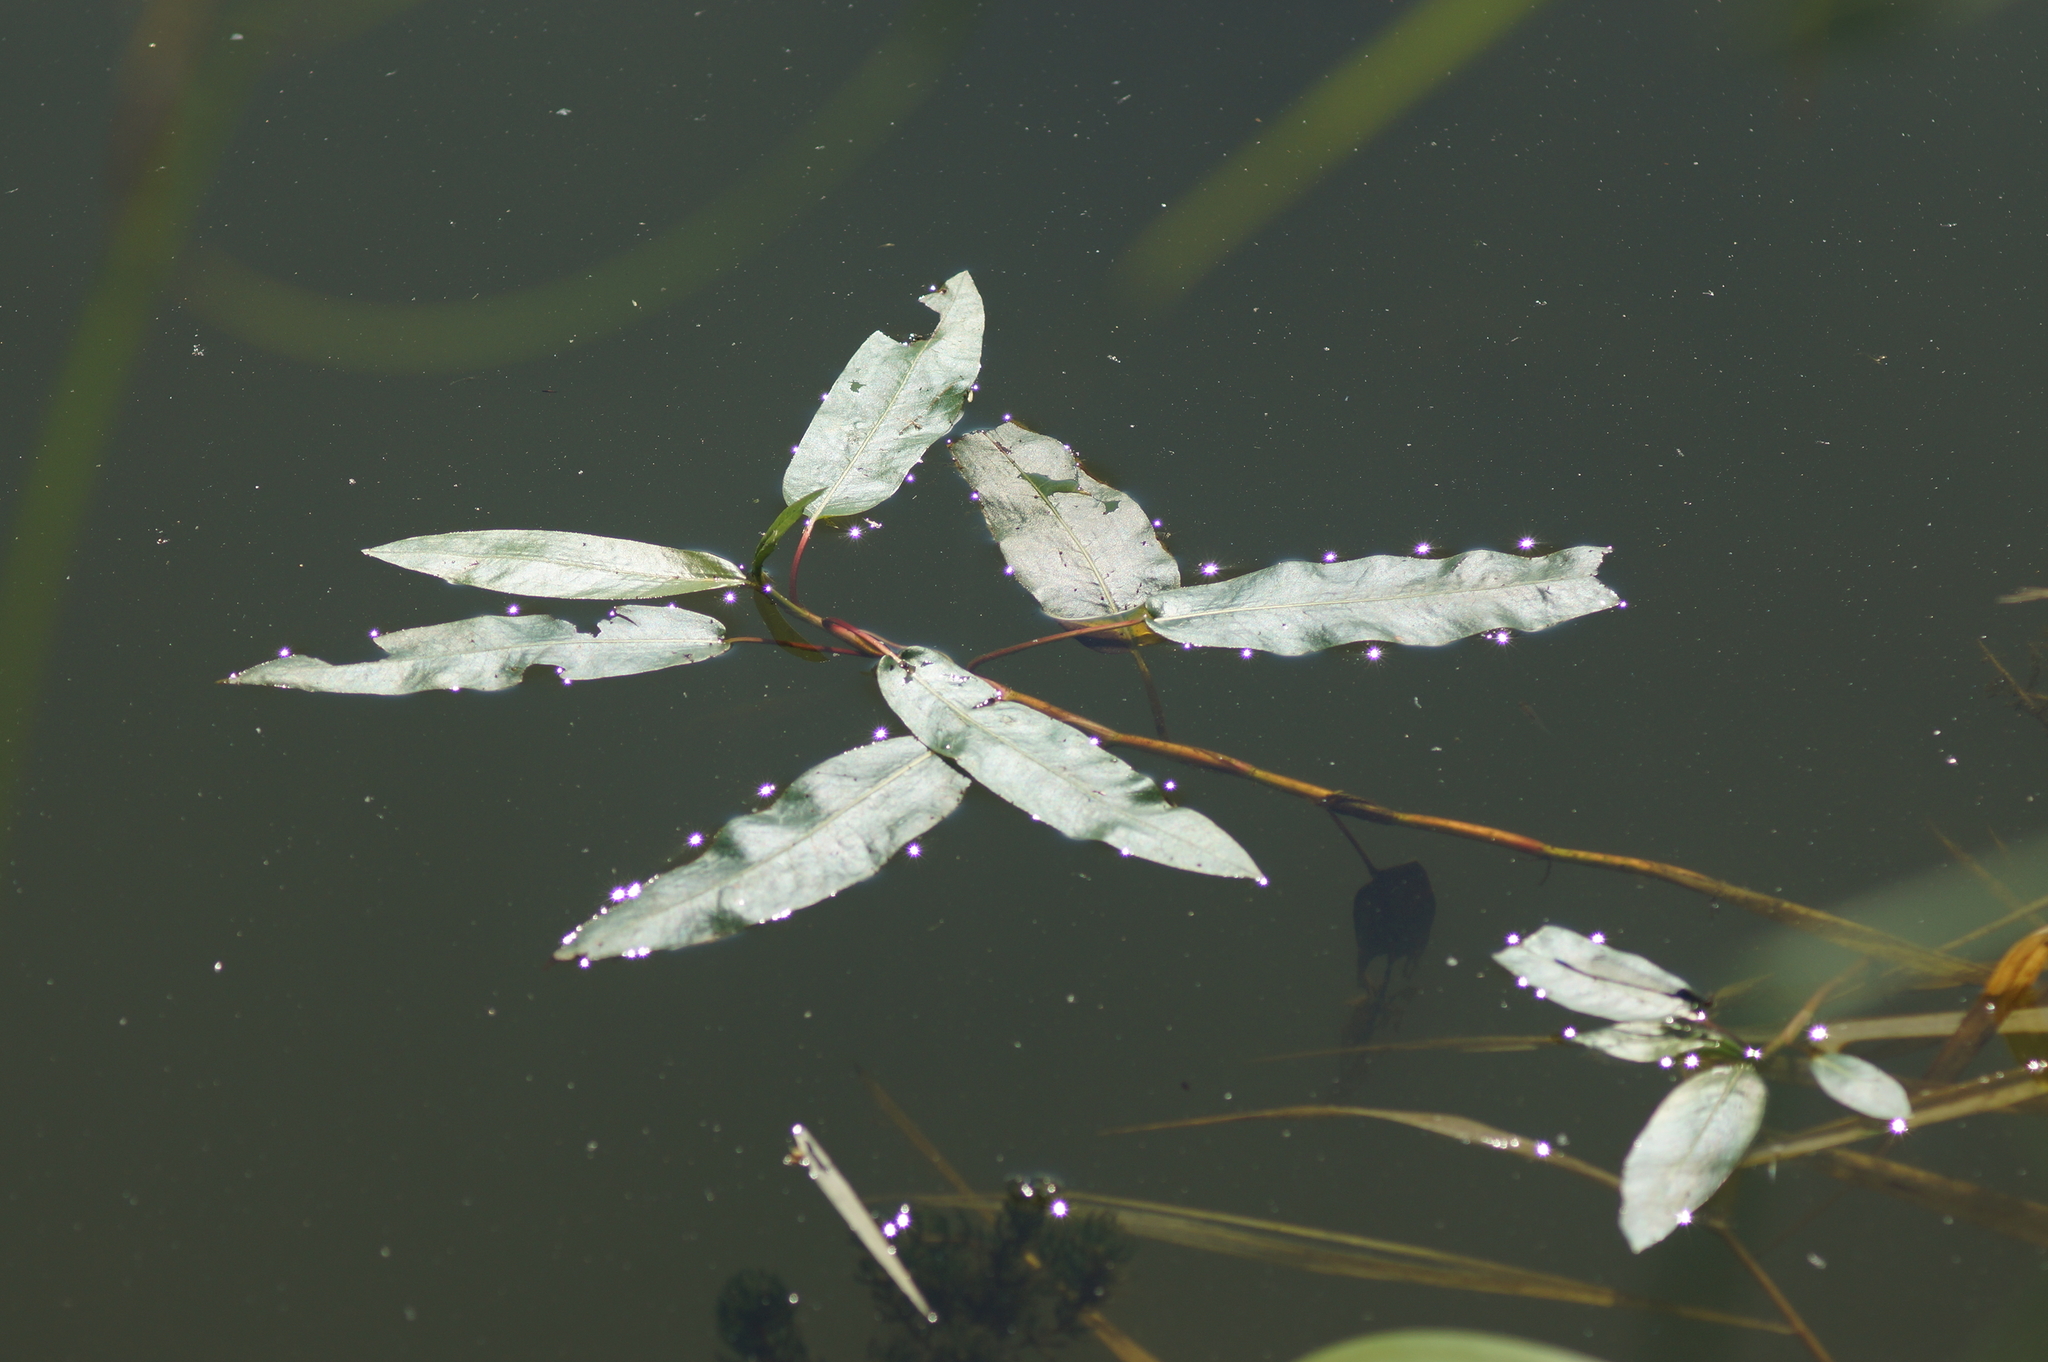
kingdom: Plantae
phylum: Tracheophyta
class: Magnoliopsida
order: Caryophyllales
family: Polygonaceae
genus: Persicaria
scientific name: Persicaria amphibia
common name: Amphibious bistort
